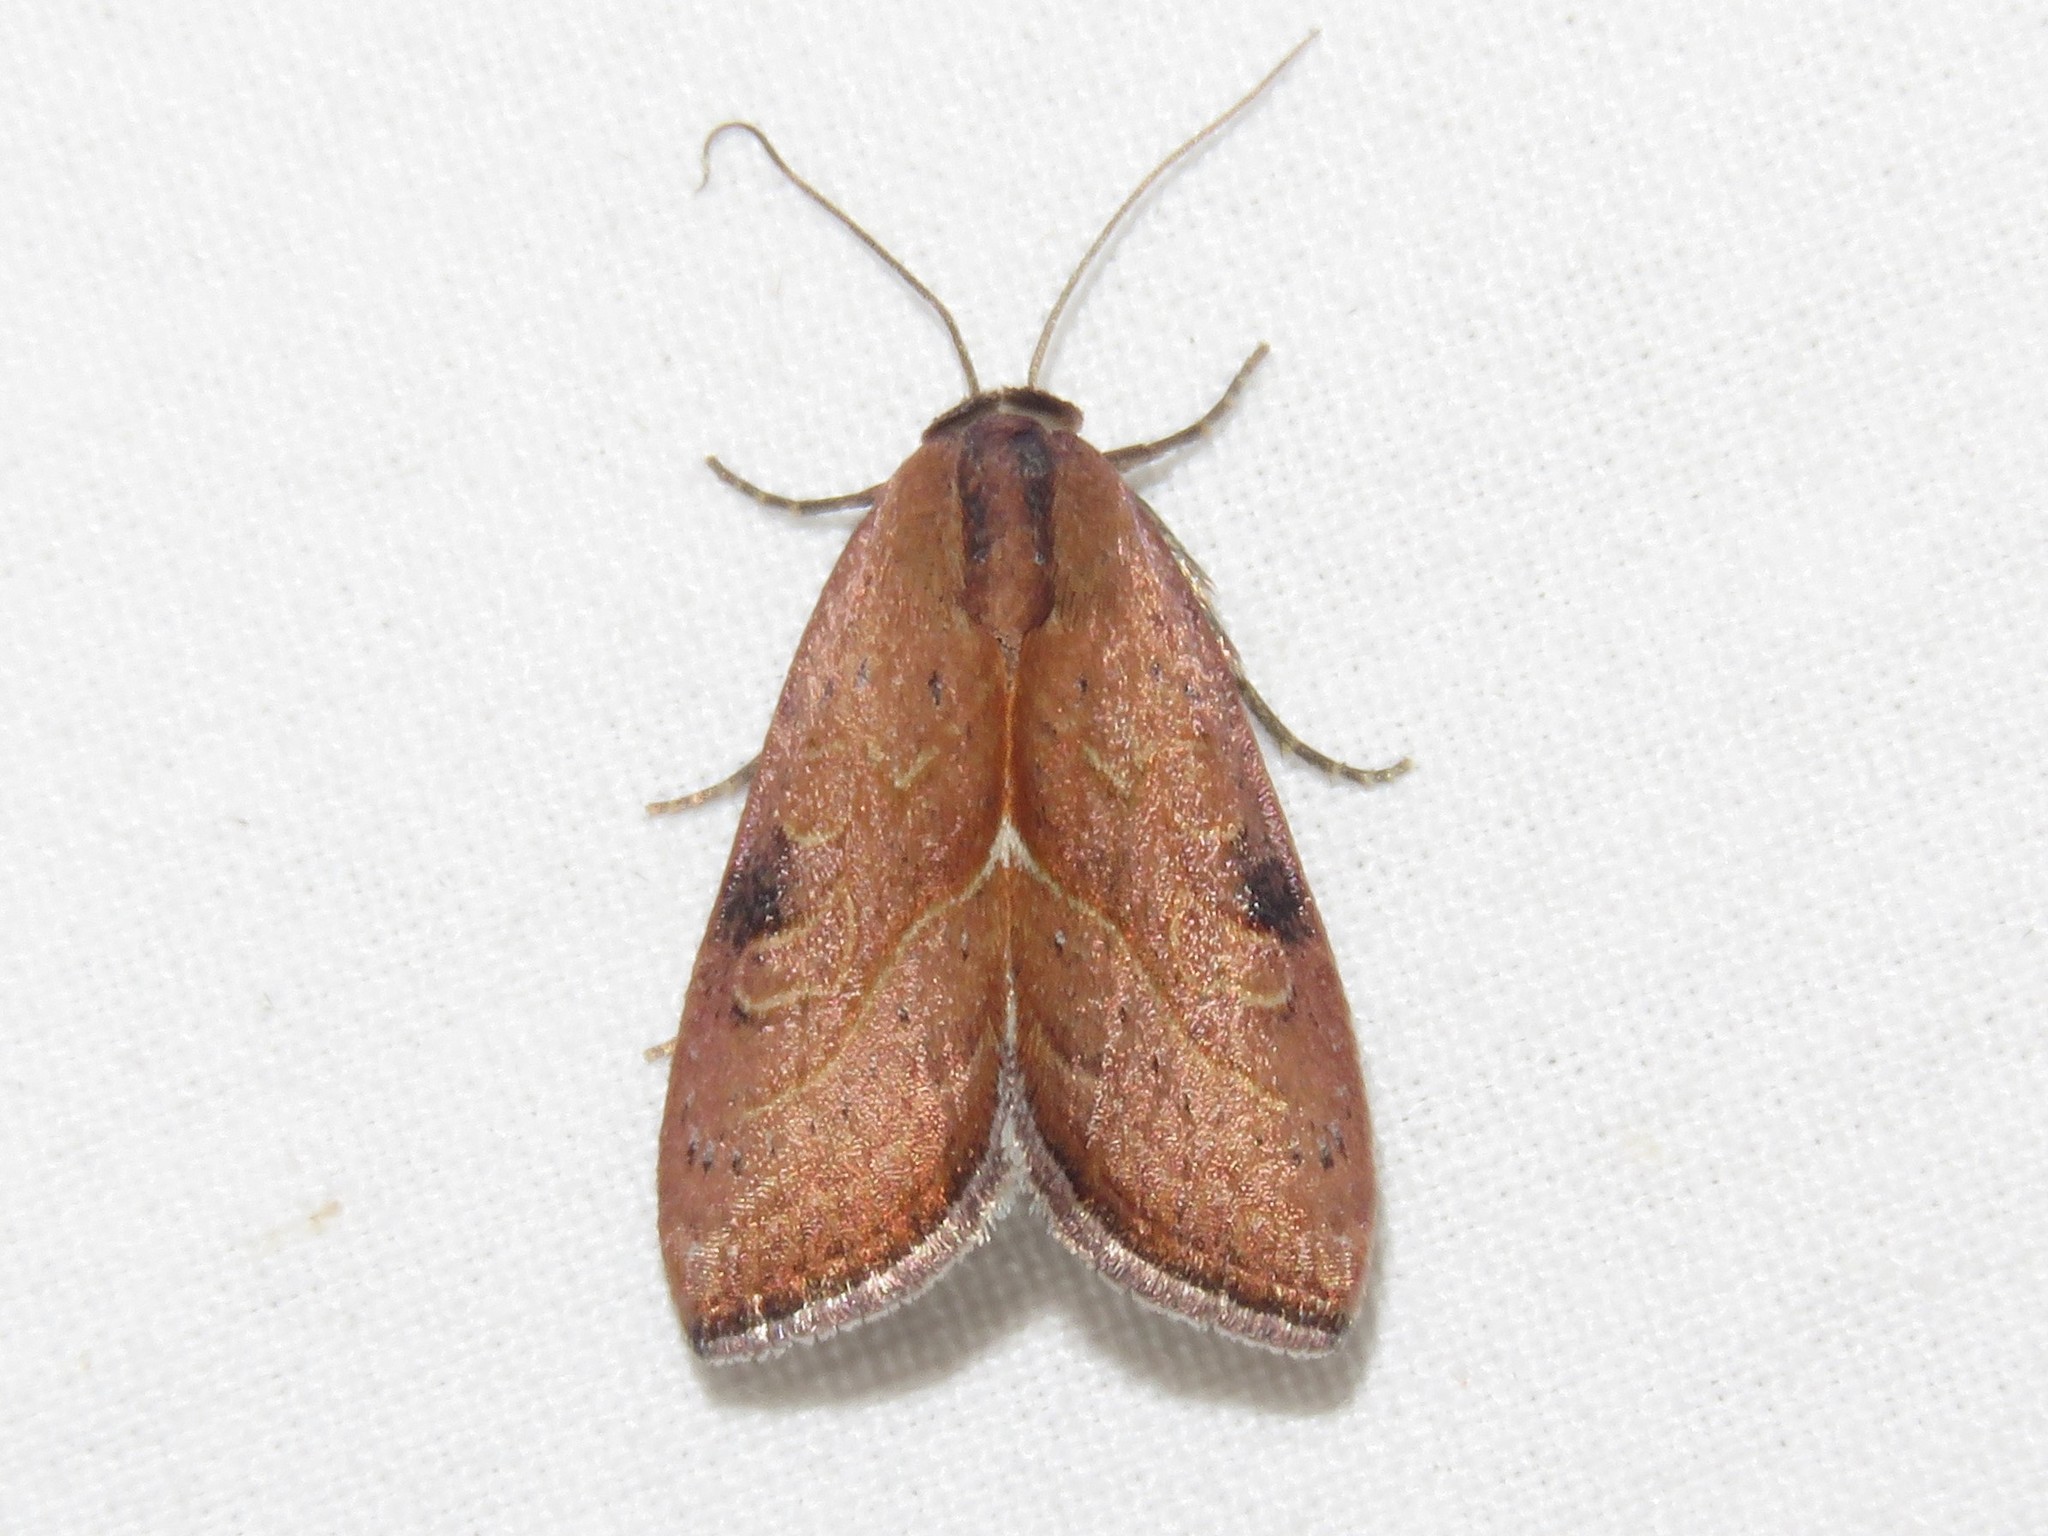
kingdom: Animalia
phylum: Arthropoda
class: Insecta
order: Lepidoptera
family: Noctuidae
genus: Galgula
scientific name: Galgula partita
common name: Wedgeling
